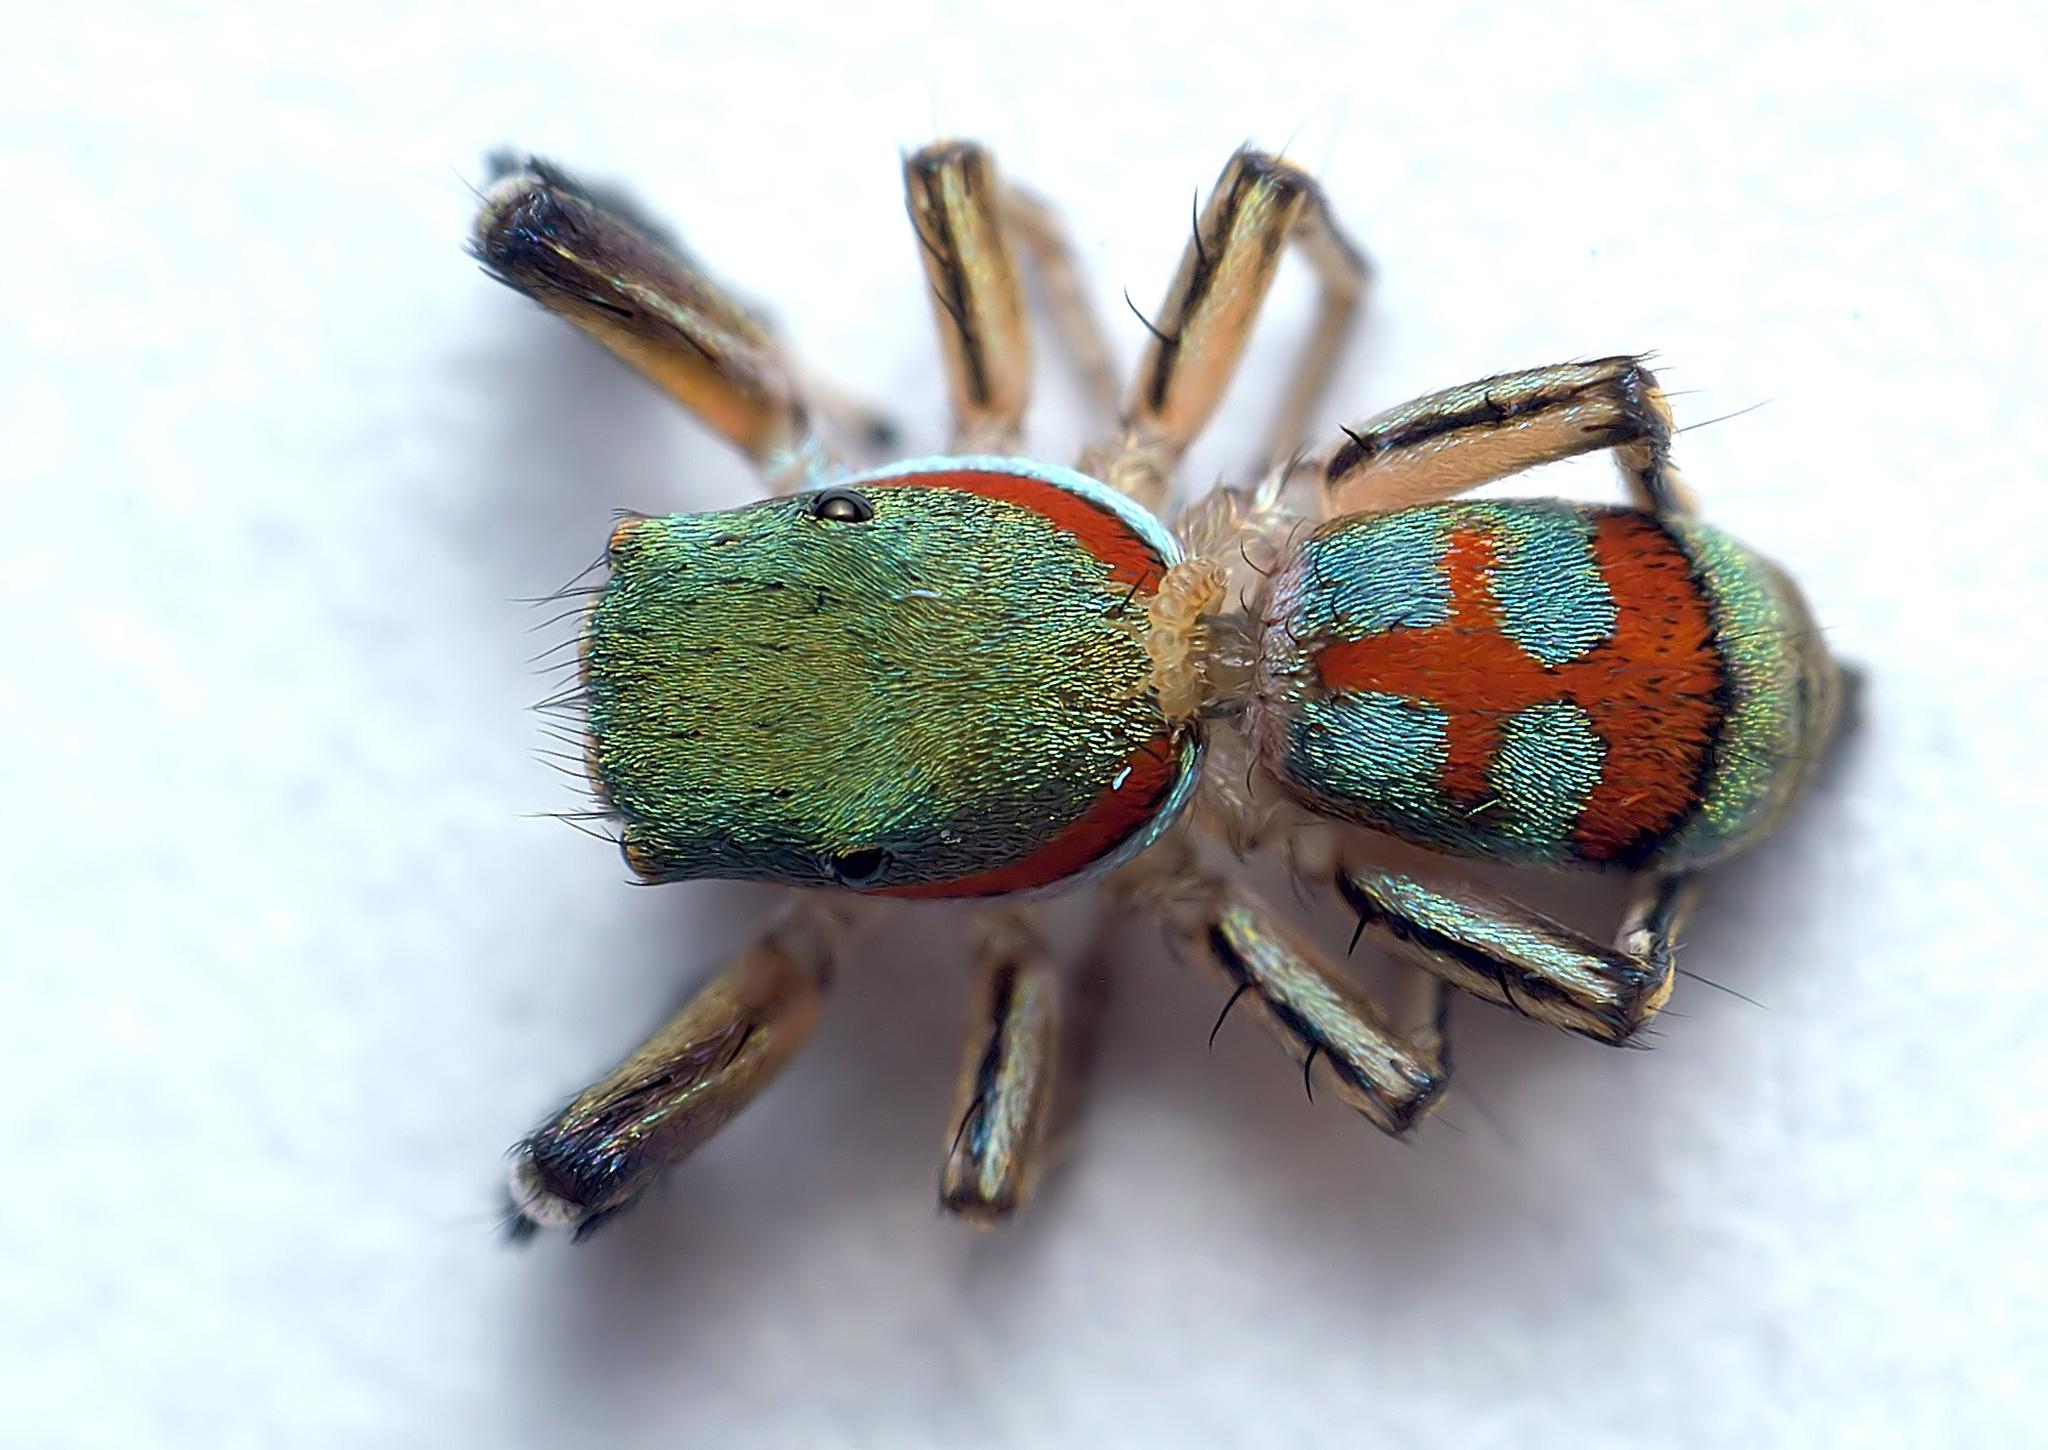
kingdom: Animalia
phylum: Arthropoda
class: Arachnida
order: Araneae
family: Salticidae
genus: Siler
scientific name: Siler semiglaucus
